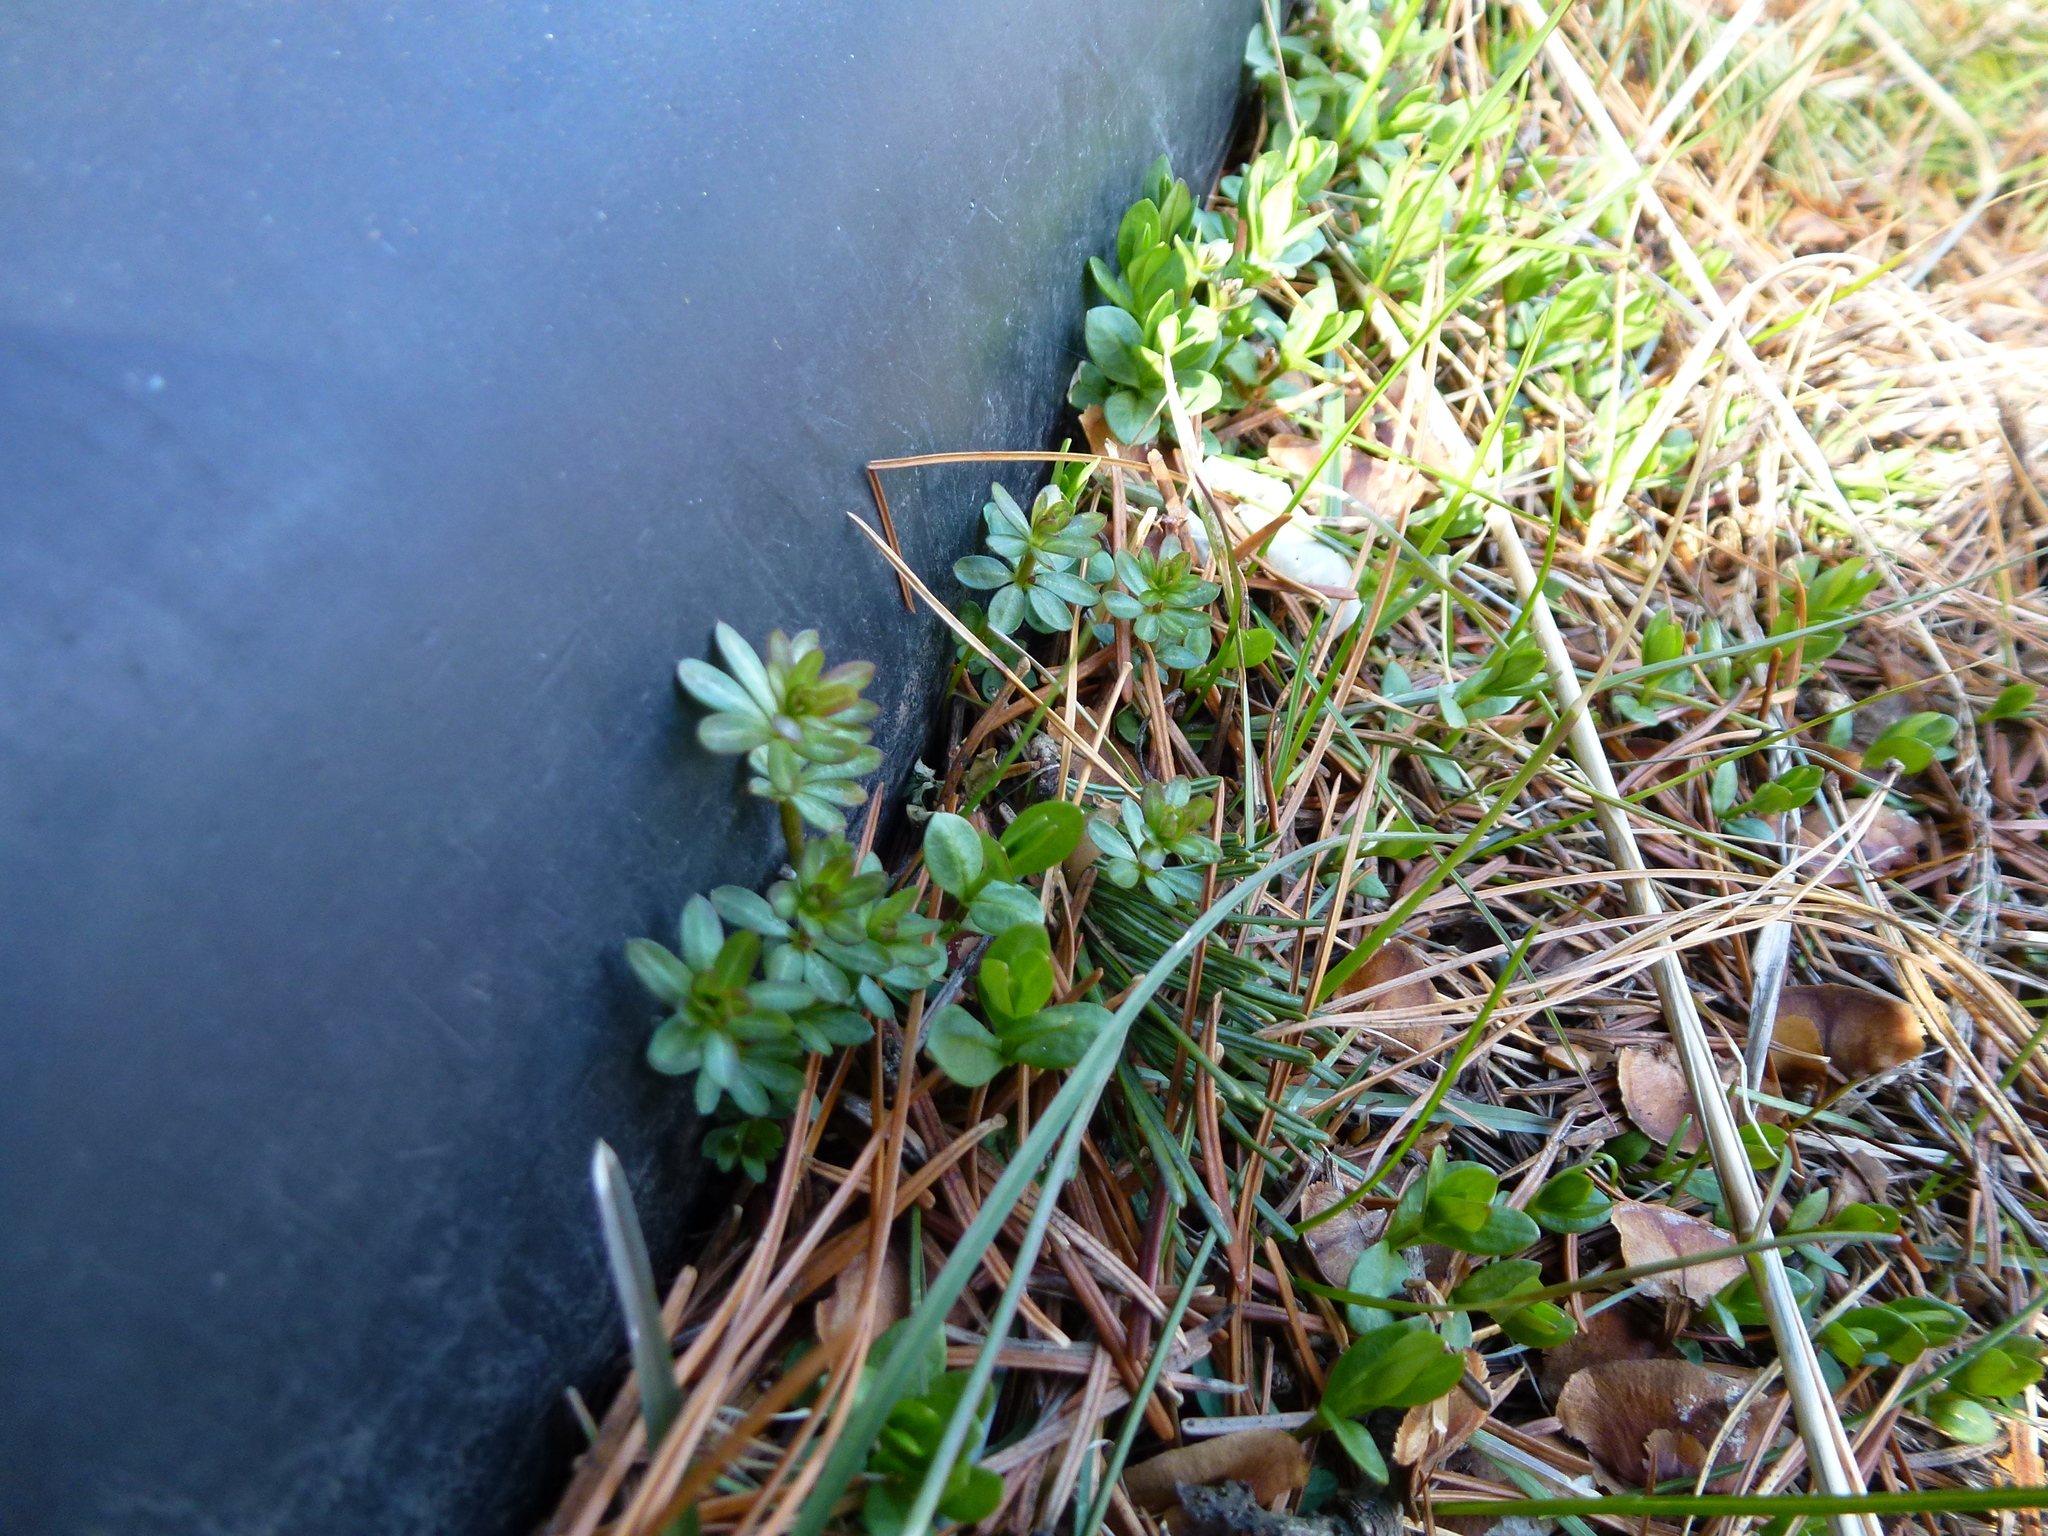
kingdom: Plantae
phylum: Tracheophyta
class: Magnoliopsida
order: Gentianales
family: Rubiaceae
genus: Galium
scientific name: Galium mollugo
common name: Hedge bedstraw
